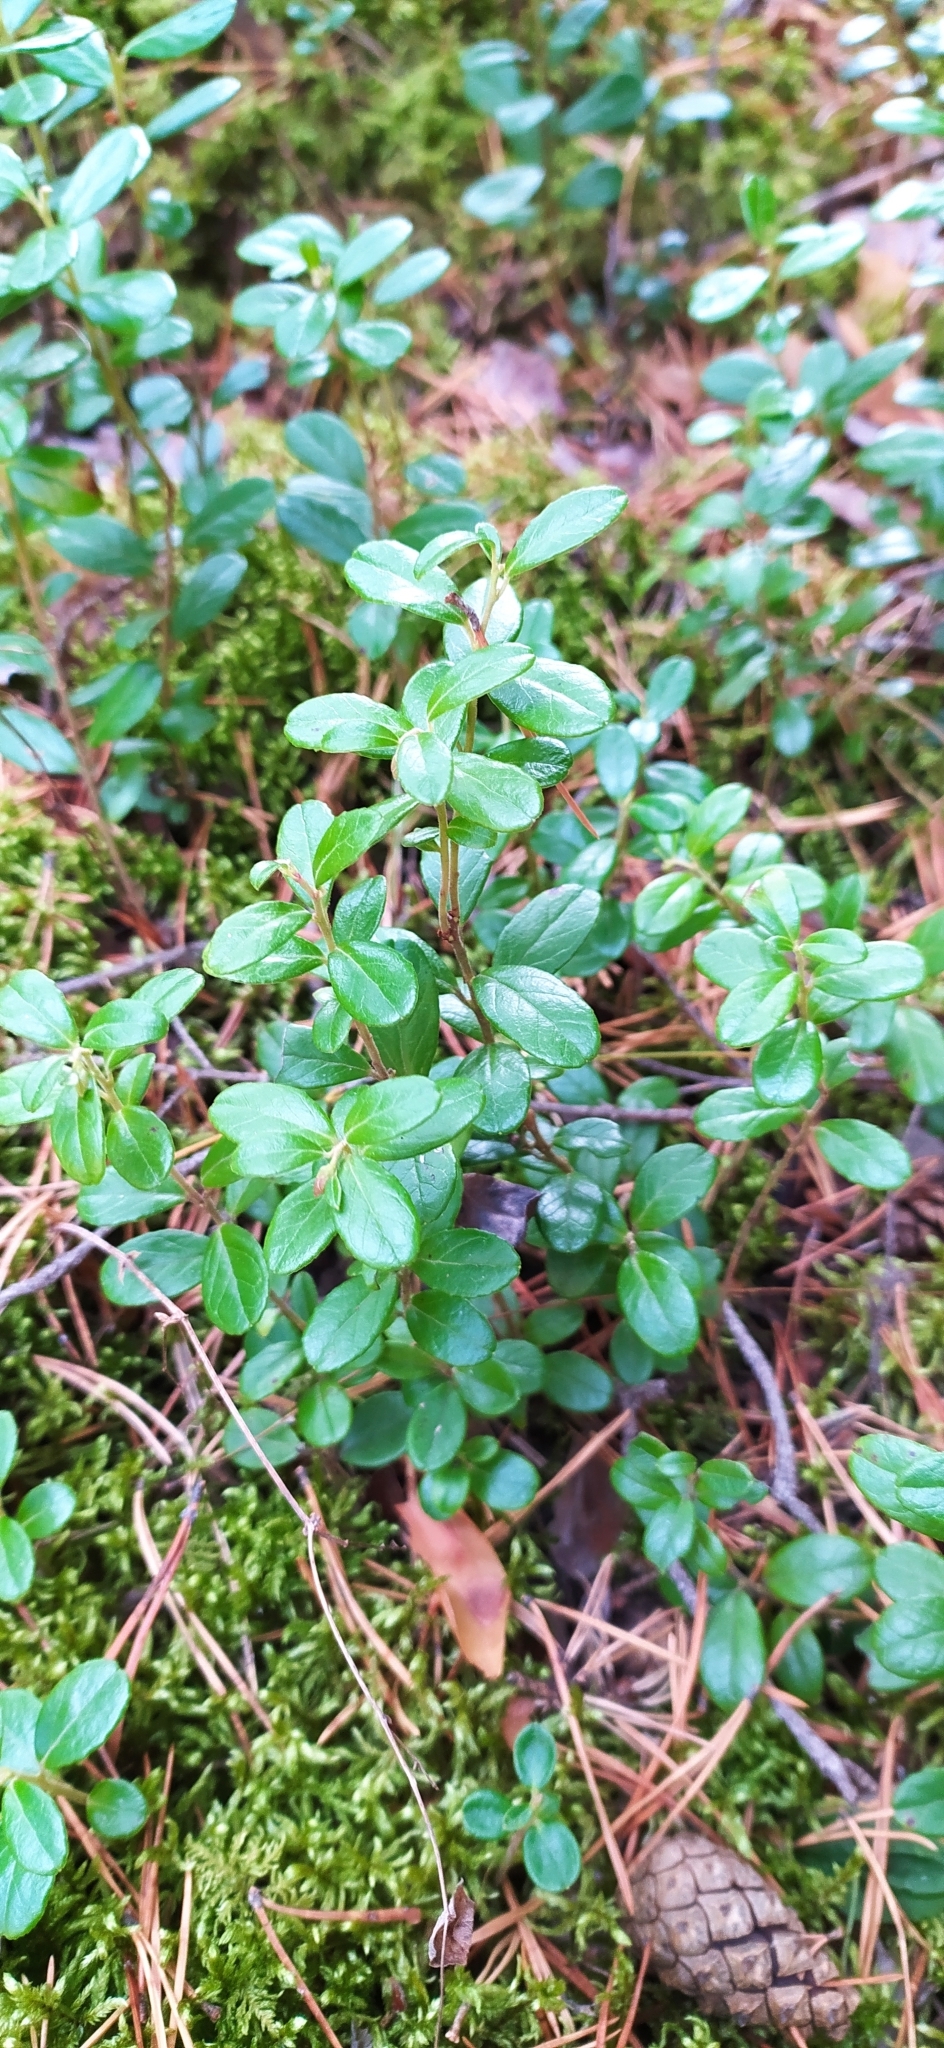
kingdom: Plantae
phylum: Tracheophyta
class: Magnoliopsida
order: Ericales
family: Ericaceae
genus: Vaccinium
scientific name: Vaccinium vitis-idaea
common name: Cowberry
